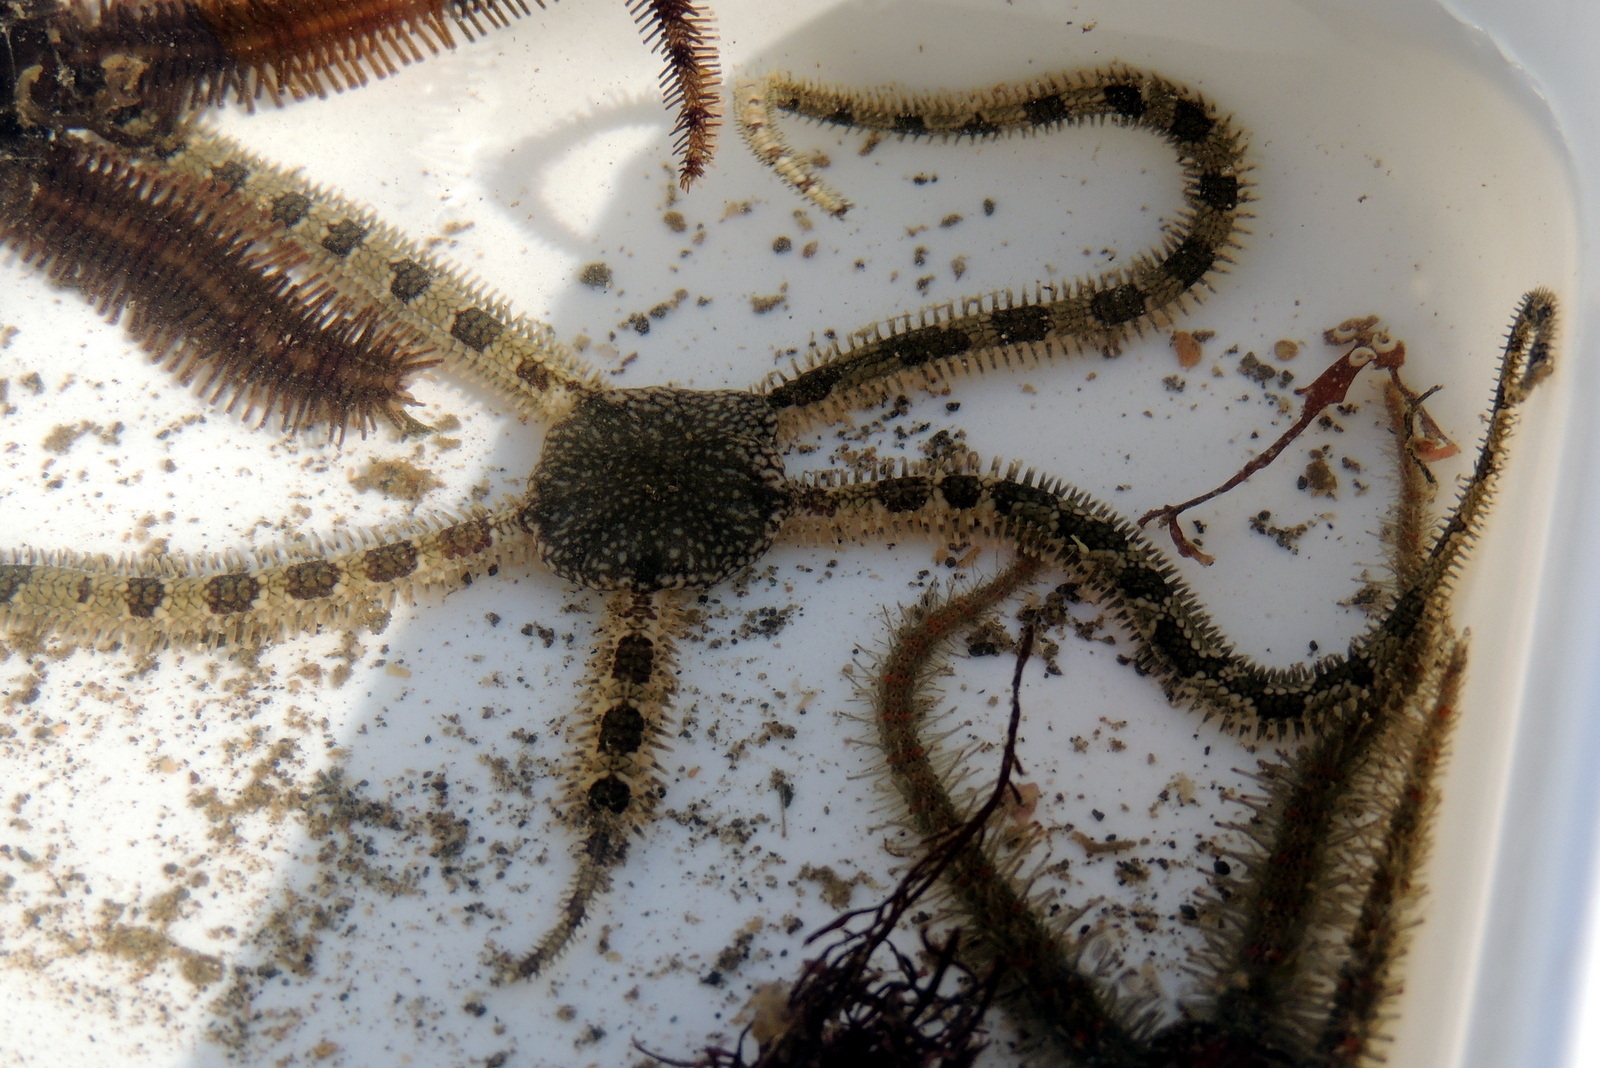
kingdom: Animalia
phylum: Echinodermata
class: Ophiuroidea
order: Amphilepidida
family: Ophionereididae
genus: Ophionereis
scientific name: Ophionereis annulata
